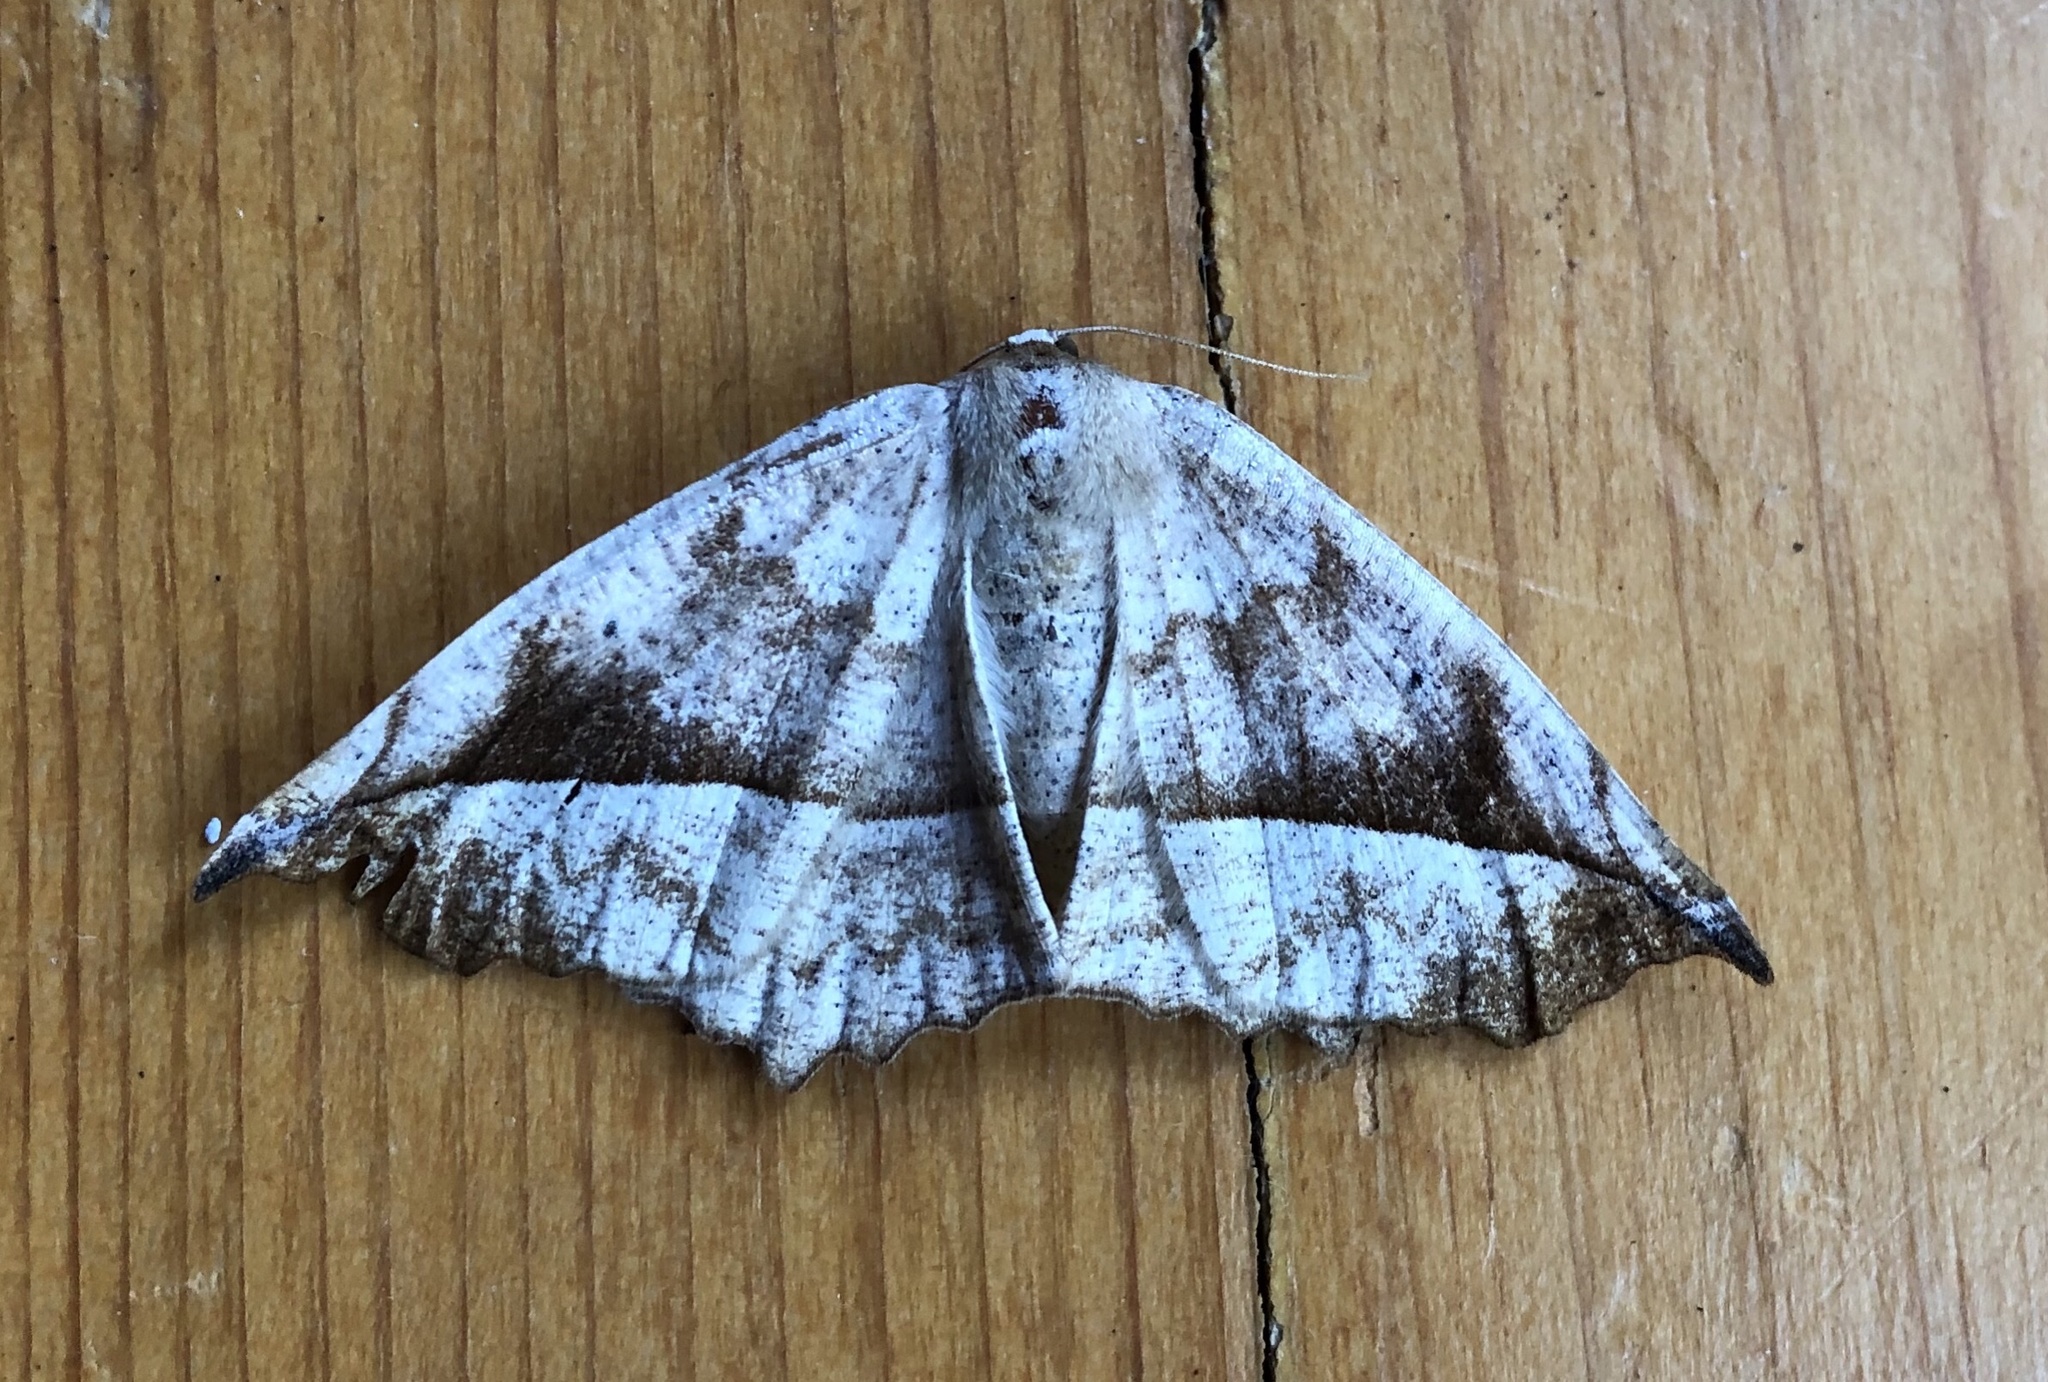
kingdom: Animalia
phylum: Arthropoda
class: Insecta
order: Lepidoptera
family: Geometridae
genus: Eutrapela
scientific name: Eutrapela clemataria
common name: Curved-toothed geometer
